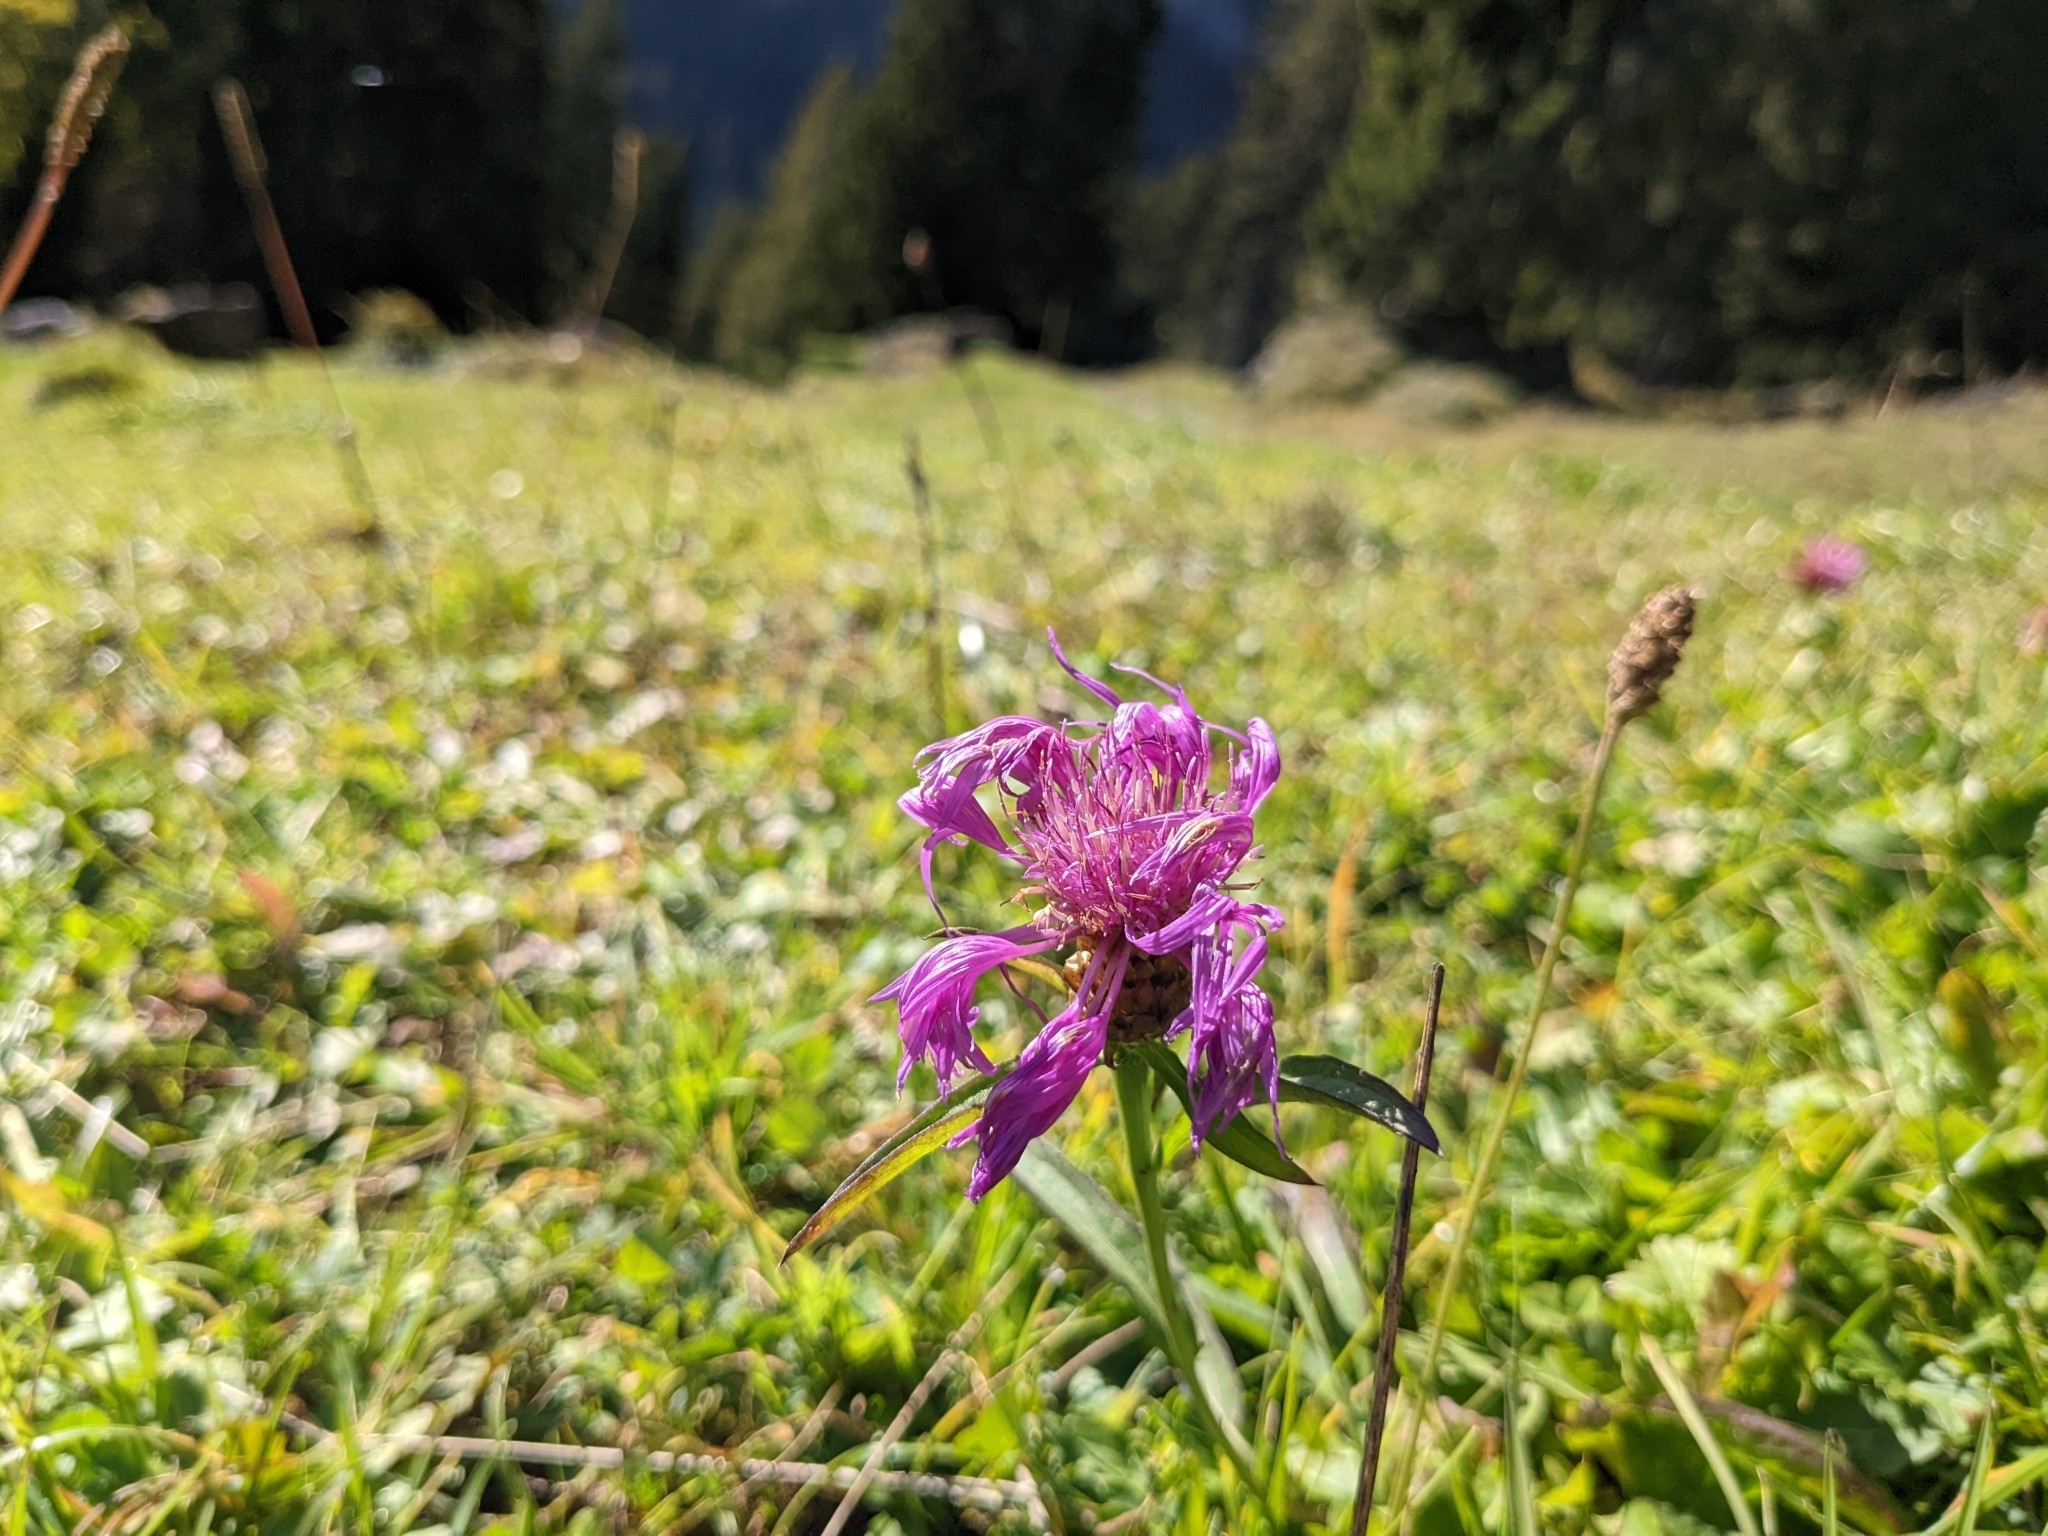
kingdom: Plantae
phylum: Tracheophyta
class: Magnoliopsida
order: Asterales
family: Asteraceae
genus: Centaurea
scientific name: Centaurea jacea
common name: Brown knapweed
